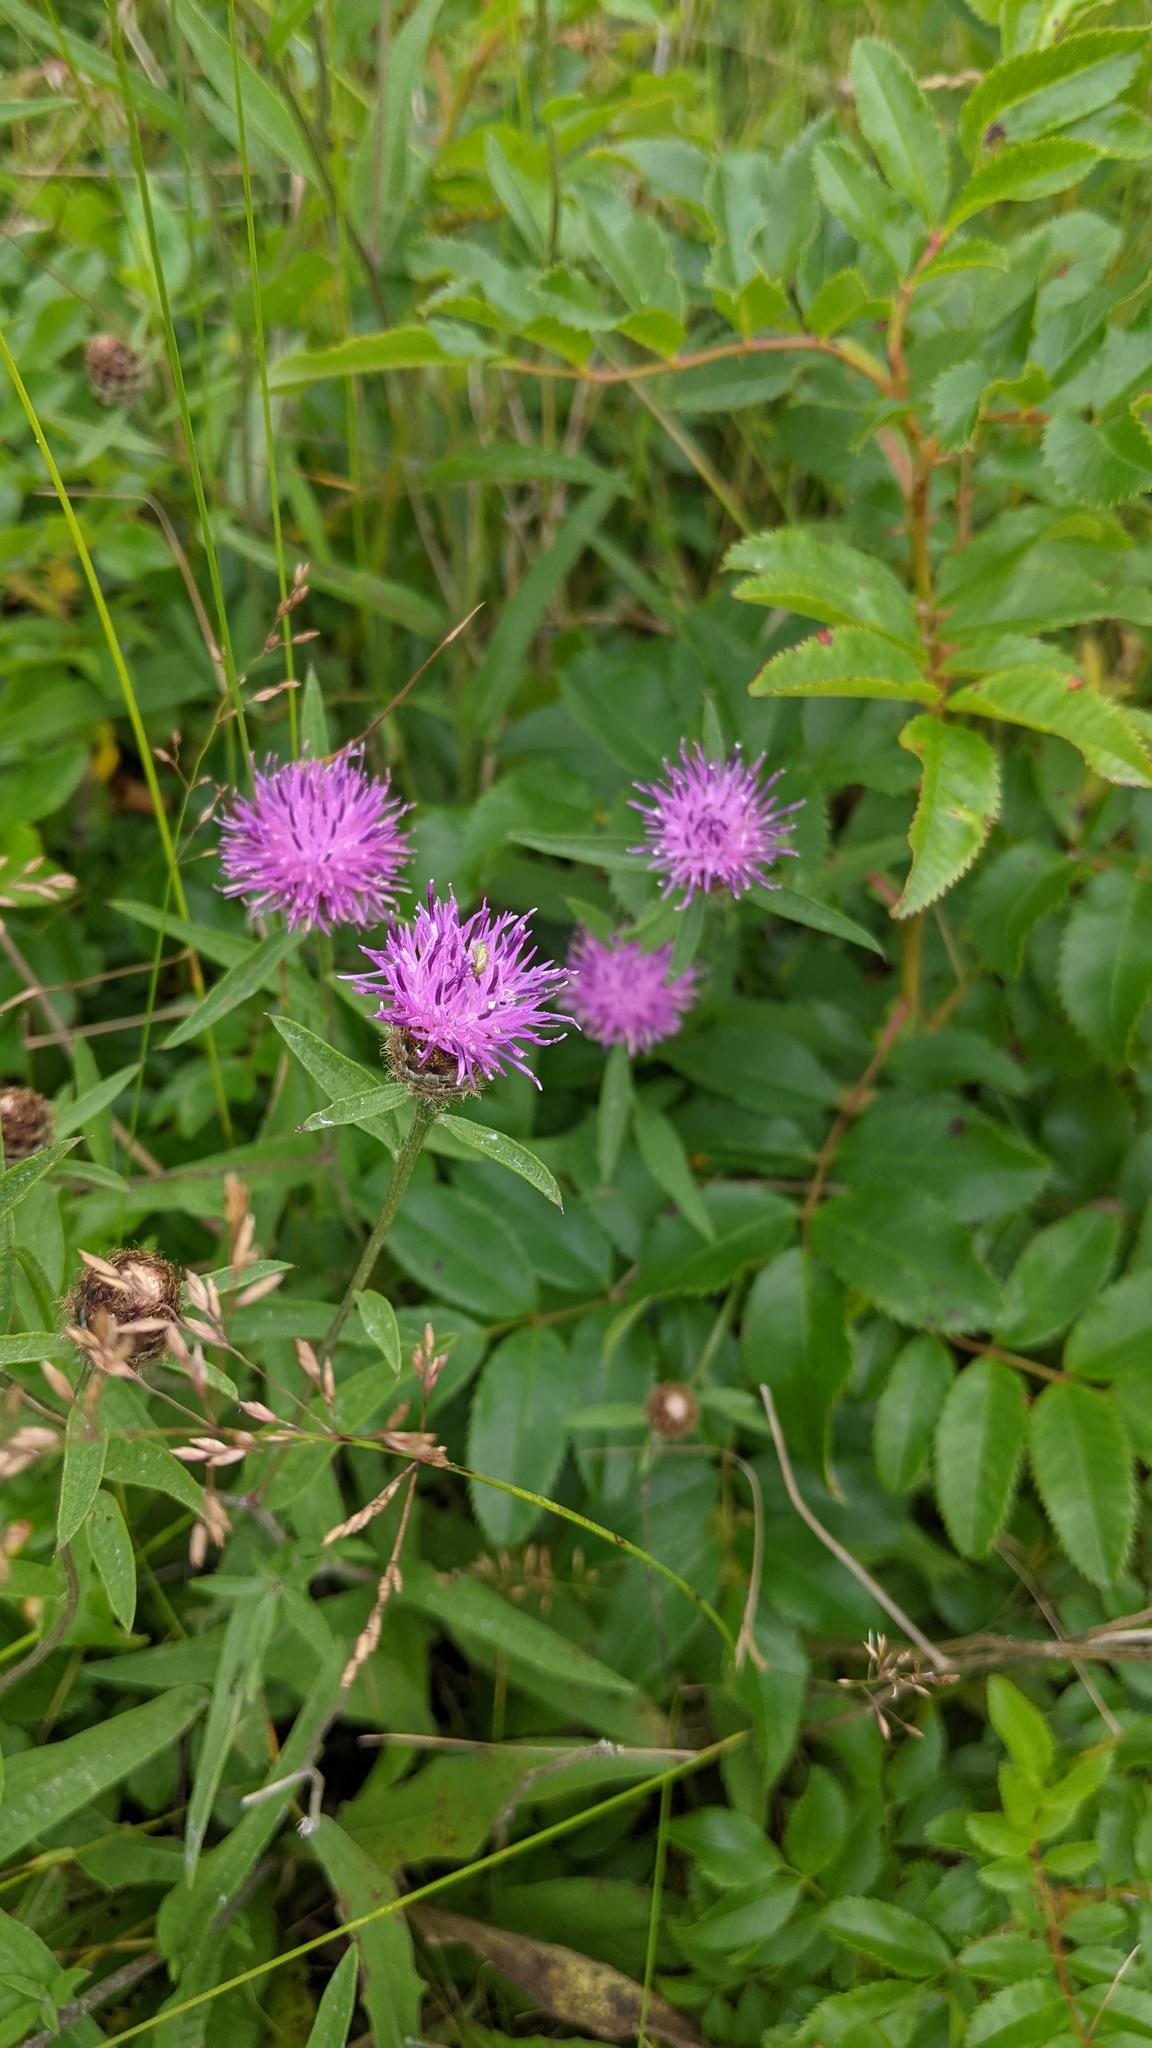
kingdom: Plantae
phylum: Tracheophyta
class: Magnoliopsida
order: Asterales
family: Asteraceae
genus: Centaurea
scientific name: Centaurea nigra
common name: Lesser knapweed
